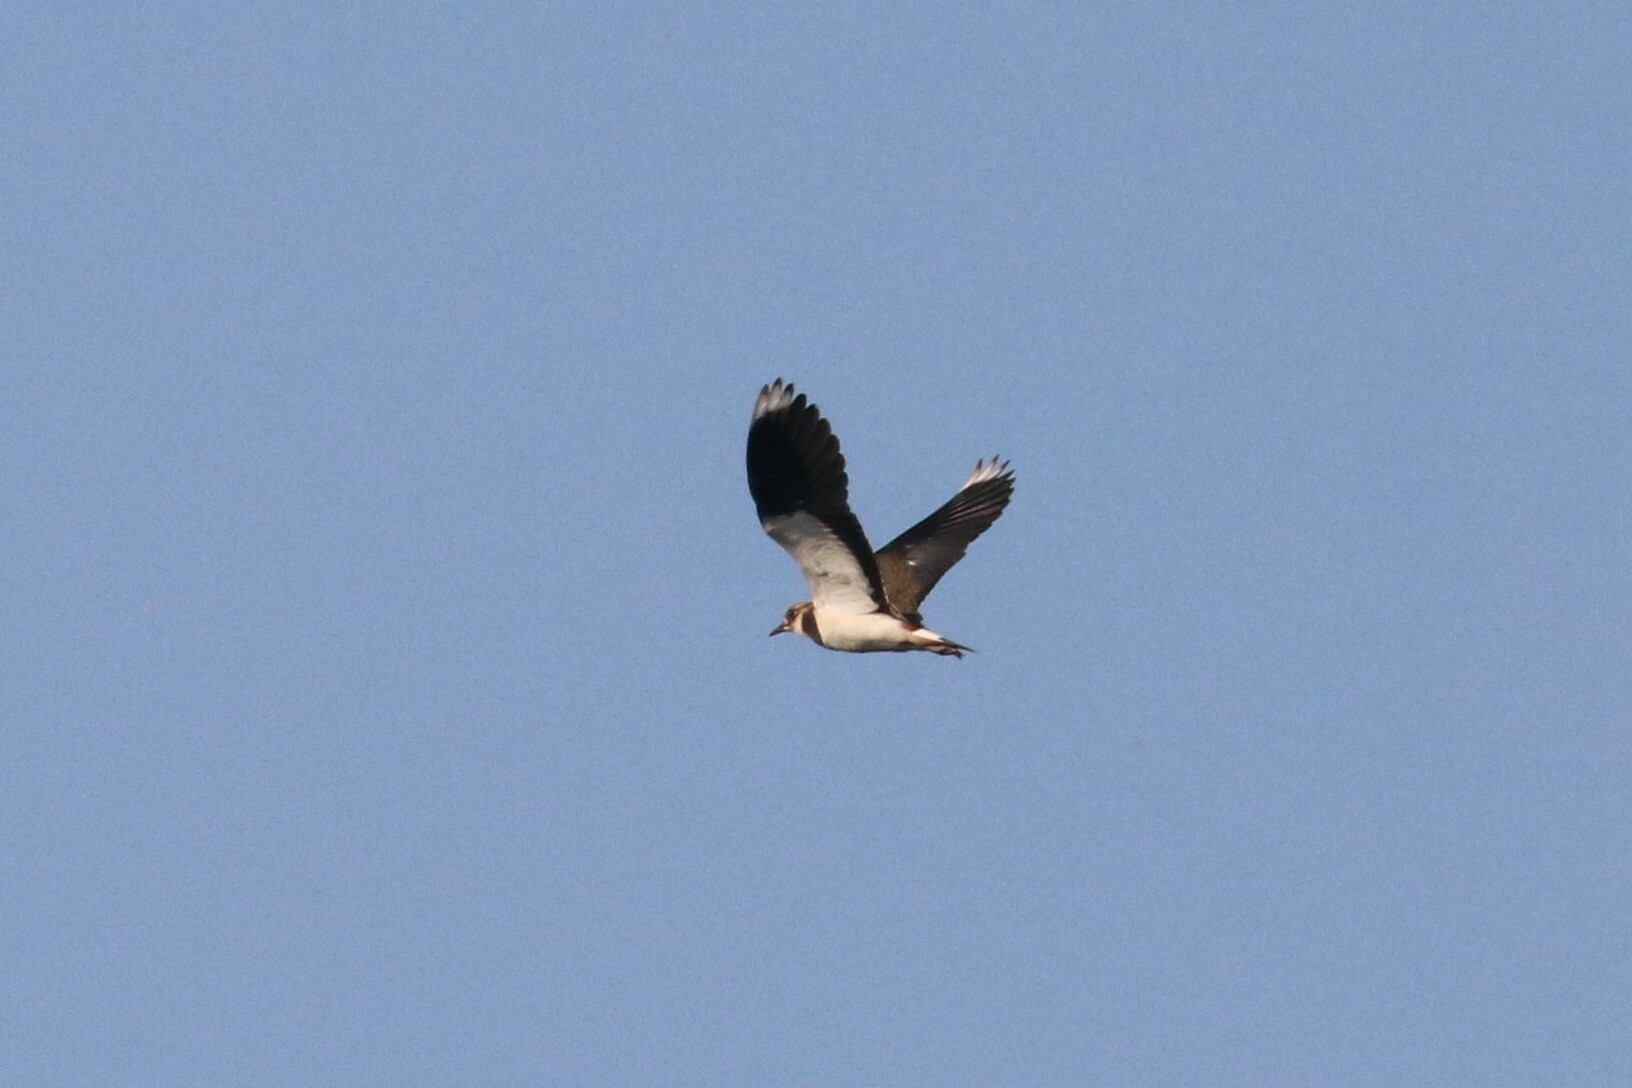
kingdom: Animalia
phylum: Chordata
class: Aves
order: Charadriiformes
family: Charadriidae
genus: Vanellus
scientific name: Vanellus vanellus
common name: Northern lapwing
